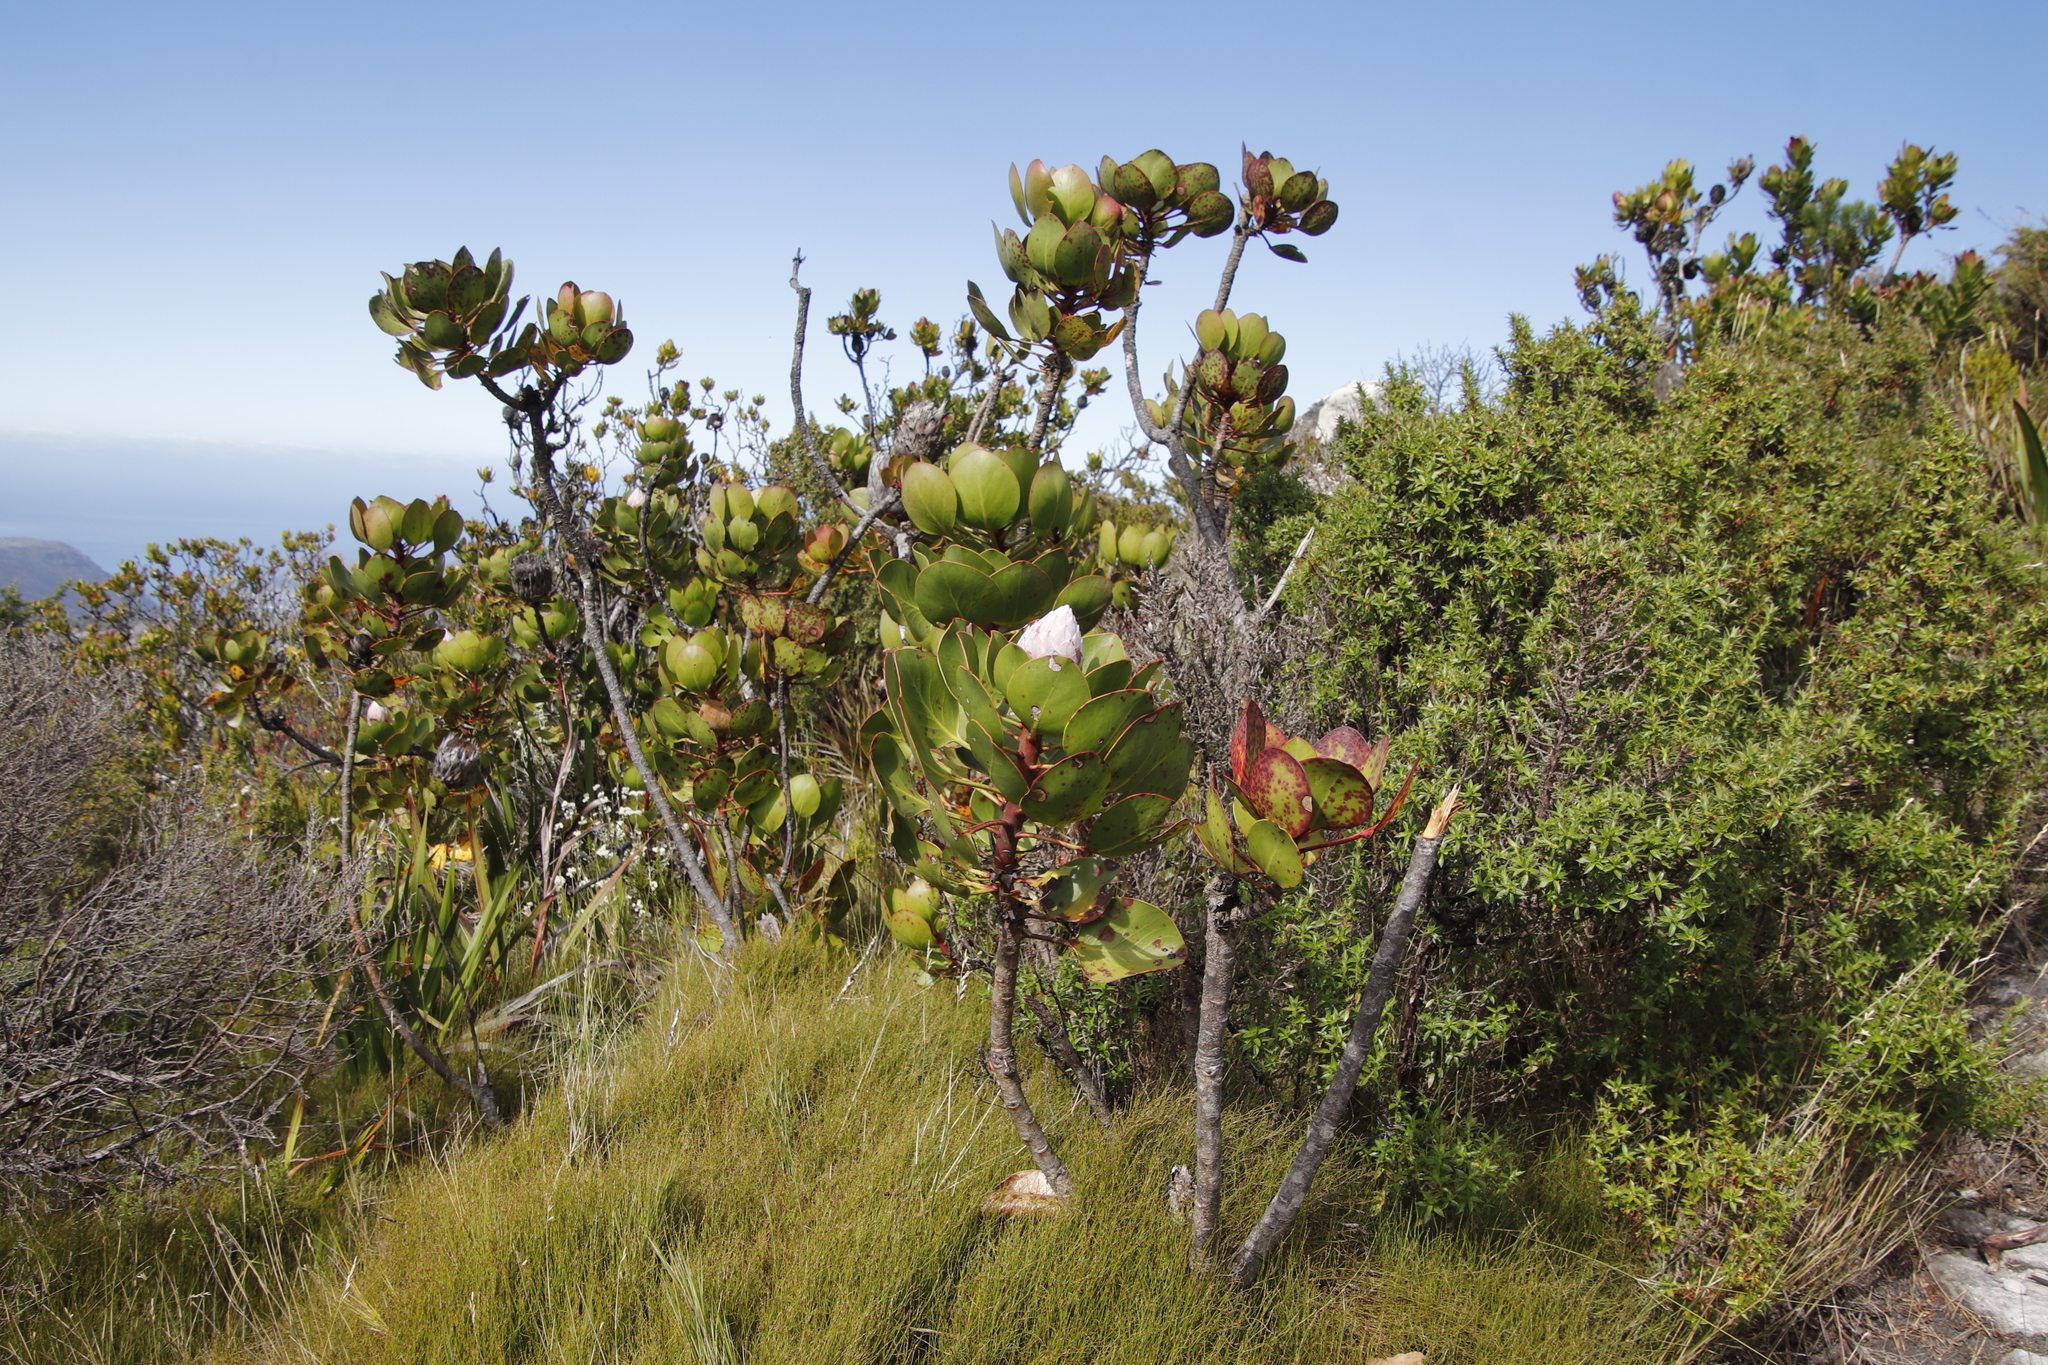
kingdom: Plantae
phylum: Tracheophyta
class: Magnoliopsida
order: Proteales
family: Proteaceae
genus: Protea
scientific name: Protea cynaroides
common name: King protea
